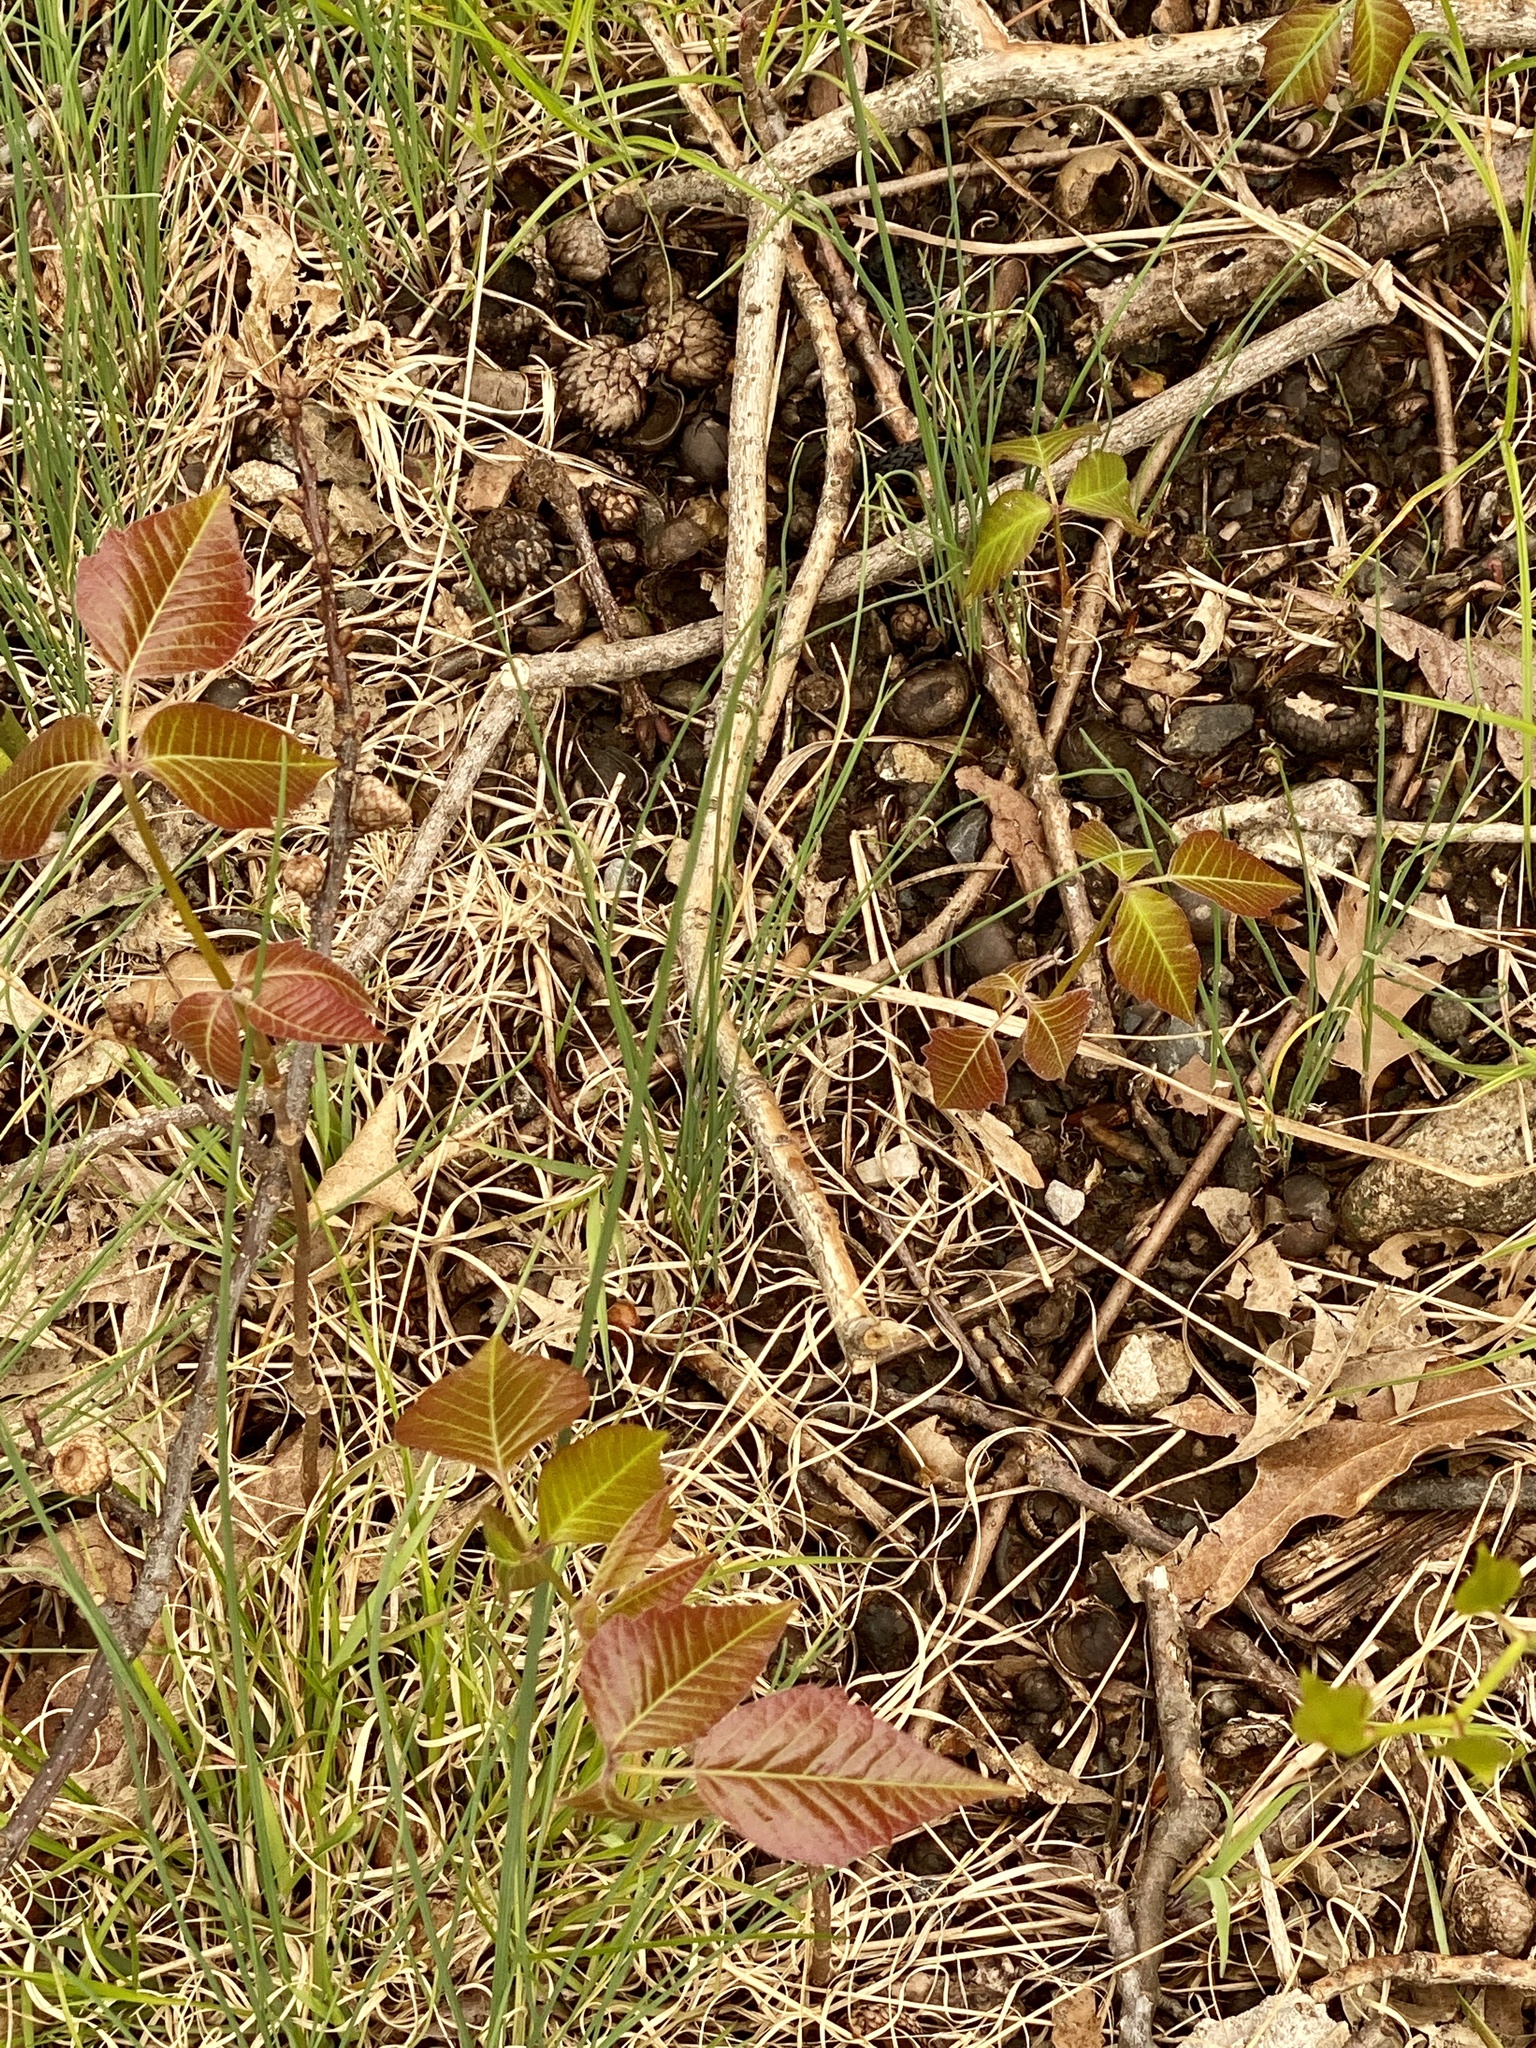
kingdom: Plantae
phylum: Tracheophyta
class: Magnoliopsida
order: Sapindales
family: Anacardiaceae
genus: Toxicodendron
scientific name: Toxicodendron radicans
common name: Poison ivy
